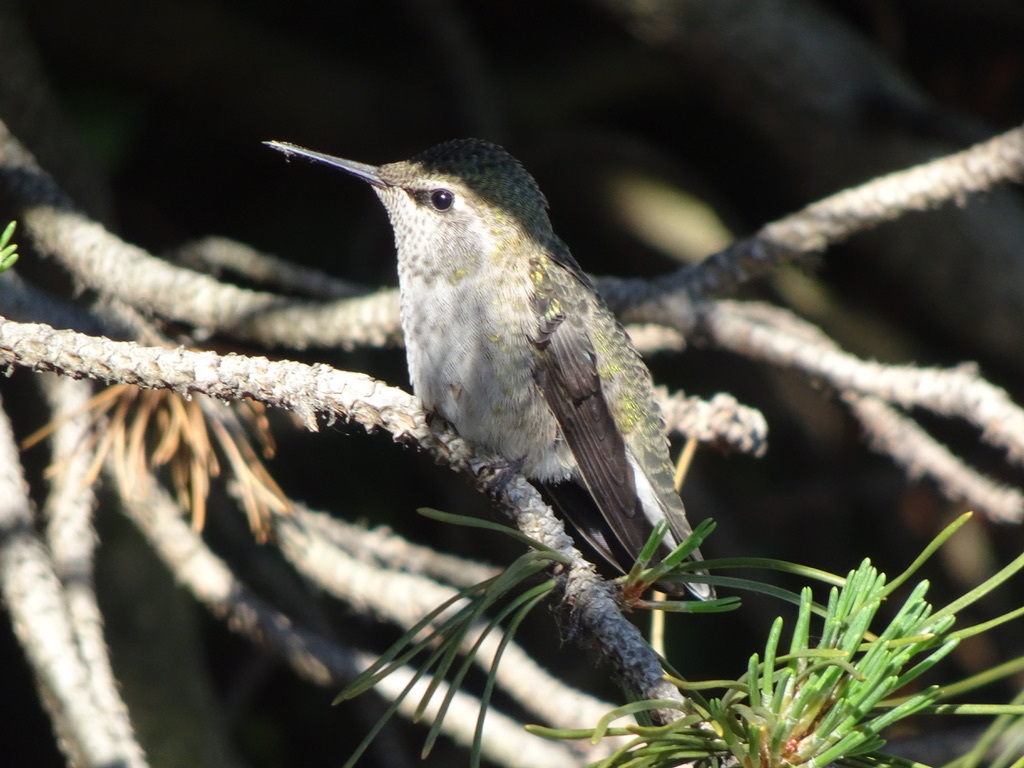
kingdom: Animalia
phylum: Chordata
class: Aves
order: Apodiformes
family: Trochilidae
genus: Calypte
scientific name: Calypte anna
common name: Anna's hummingbird
